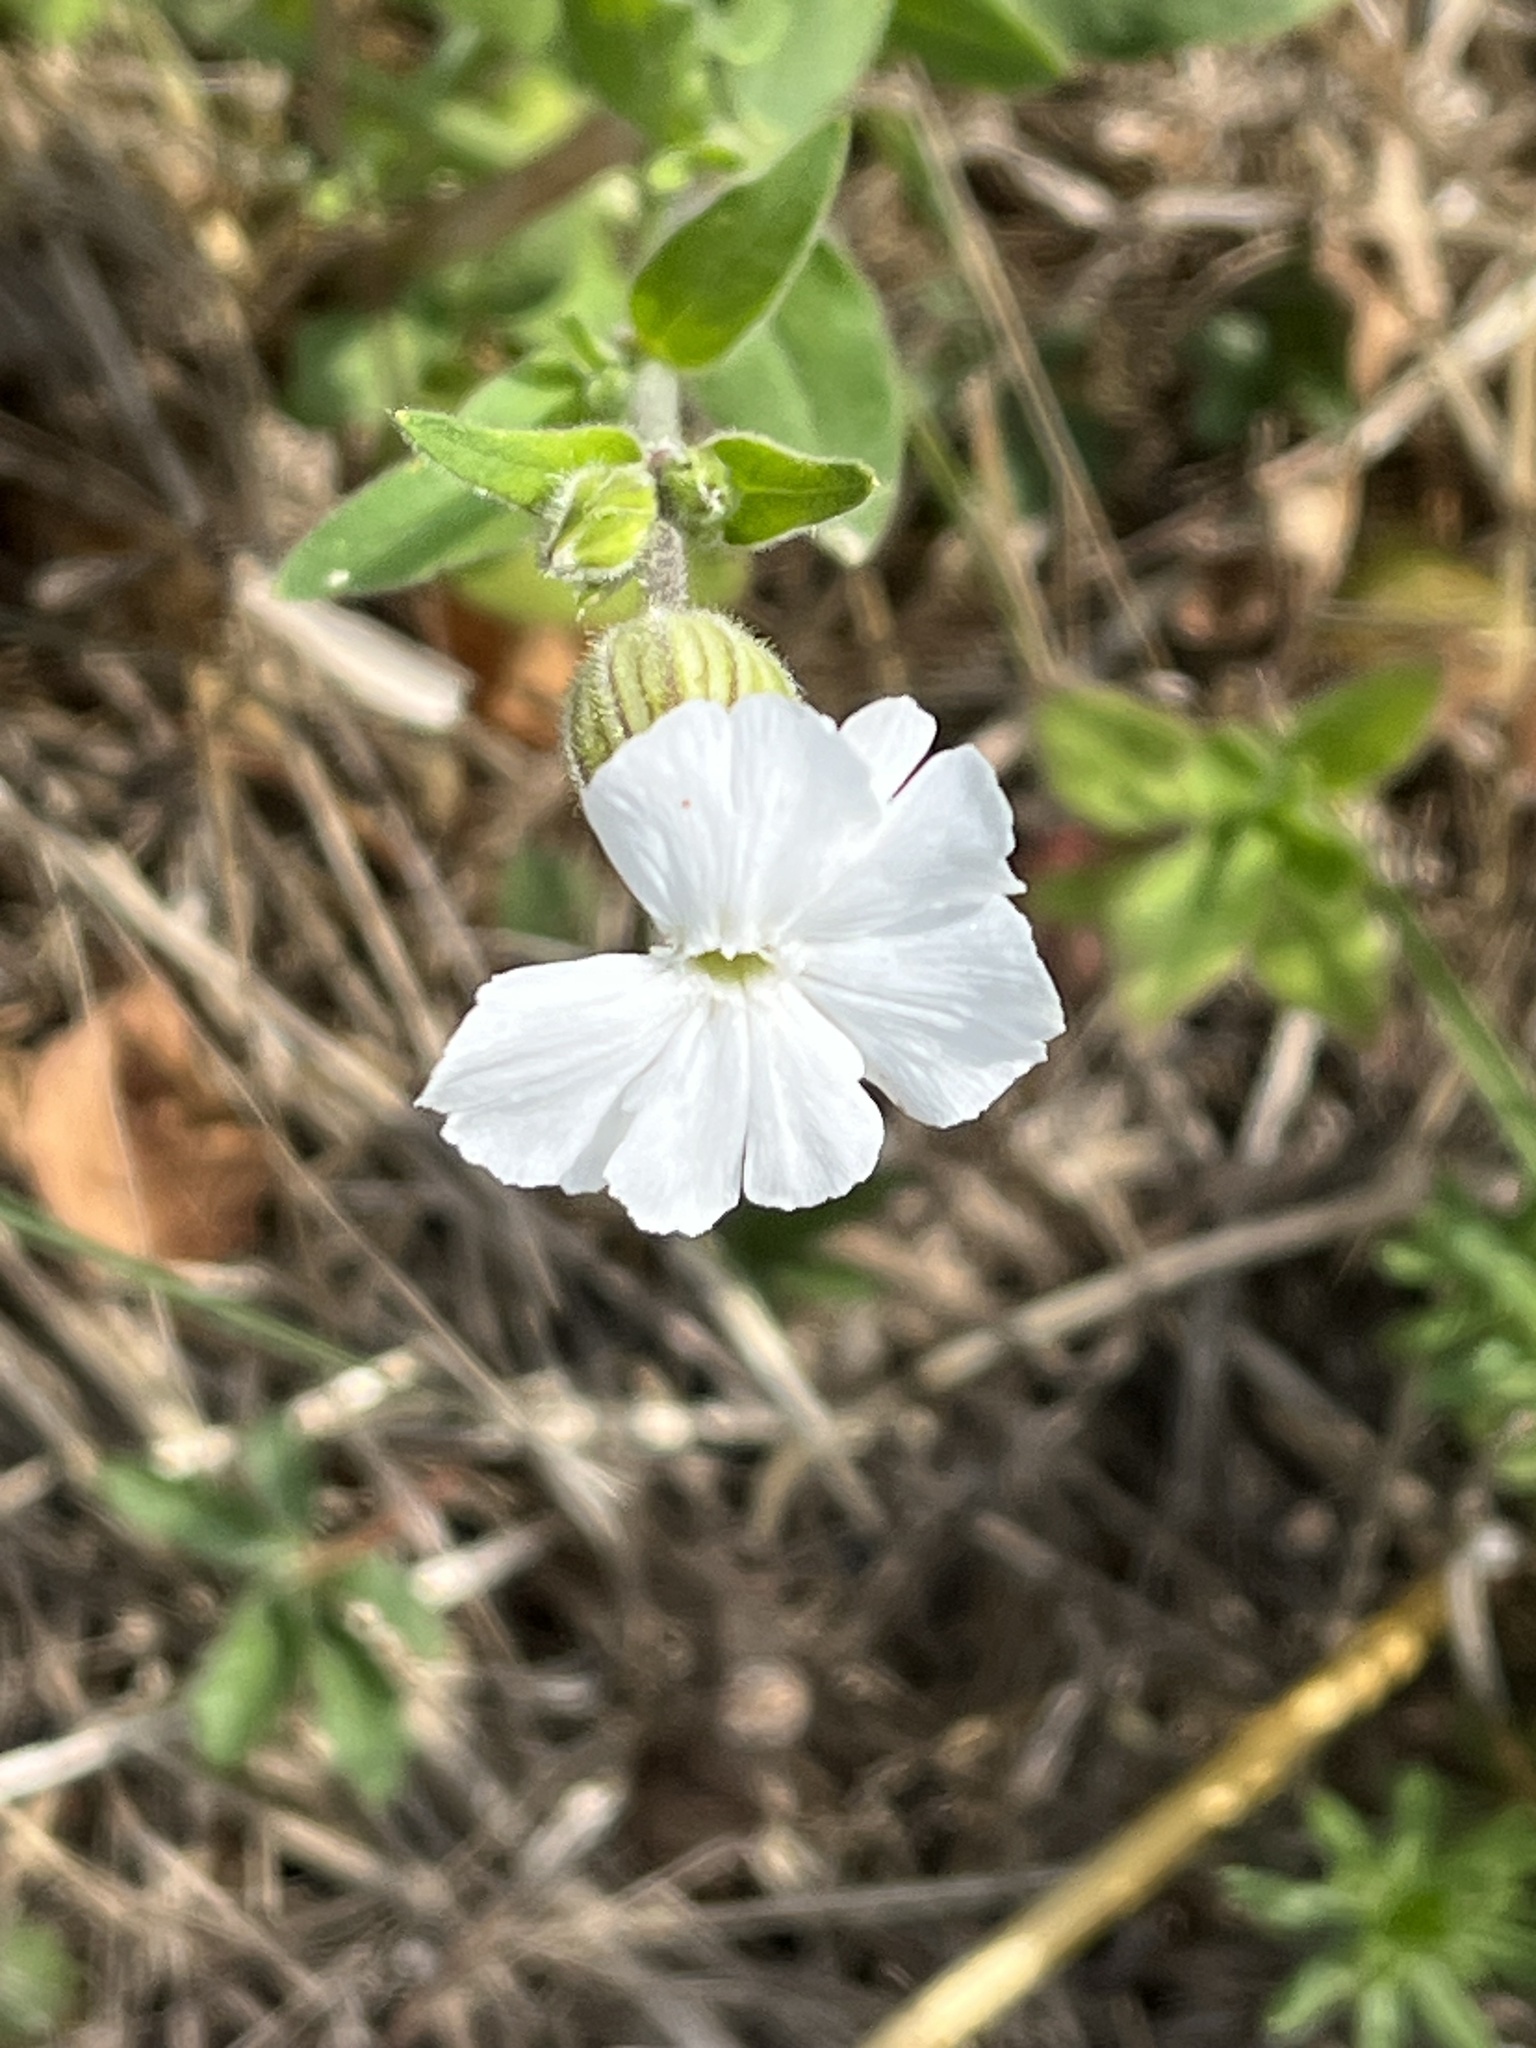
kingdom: Plantae
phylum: Tracheophyta
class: Magnoliopsida
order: Caryophyllales
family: Caryophyllaceae
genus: Silene
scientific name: Silene latifolia
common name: White campion
